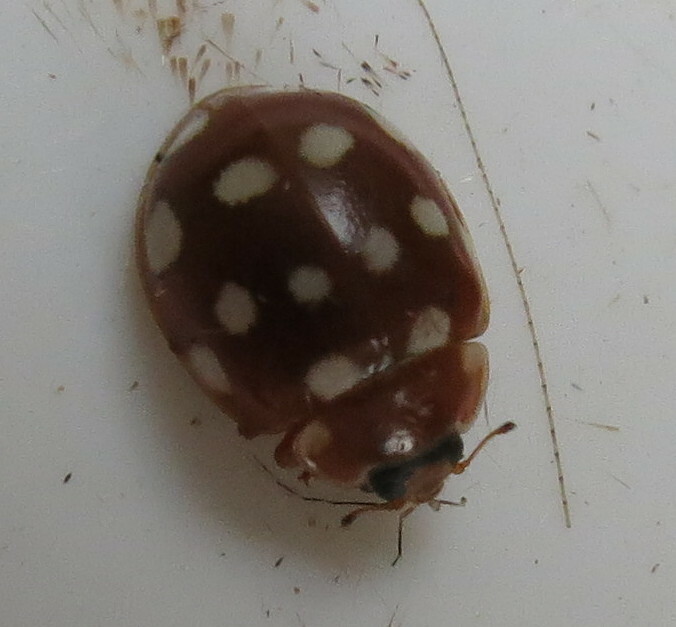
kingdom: Animalia
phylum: Arthropoda
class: Insecta
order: Coleoptera
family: Coccinellidae
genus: Calvia
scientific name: Calvia quatuordecimguttata
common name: Cream-spot ladybird
